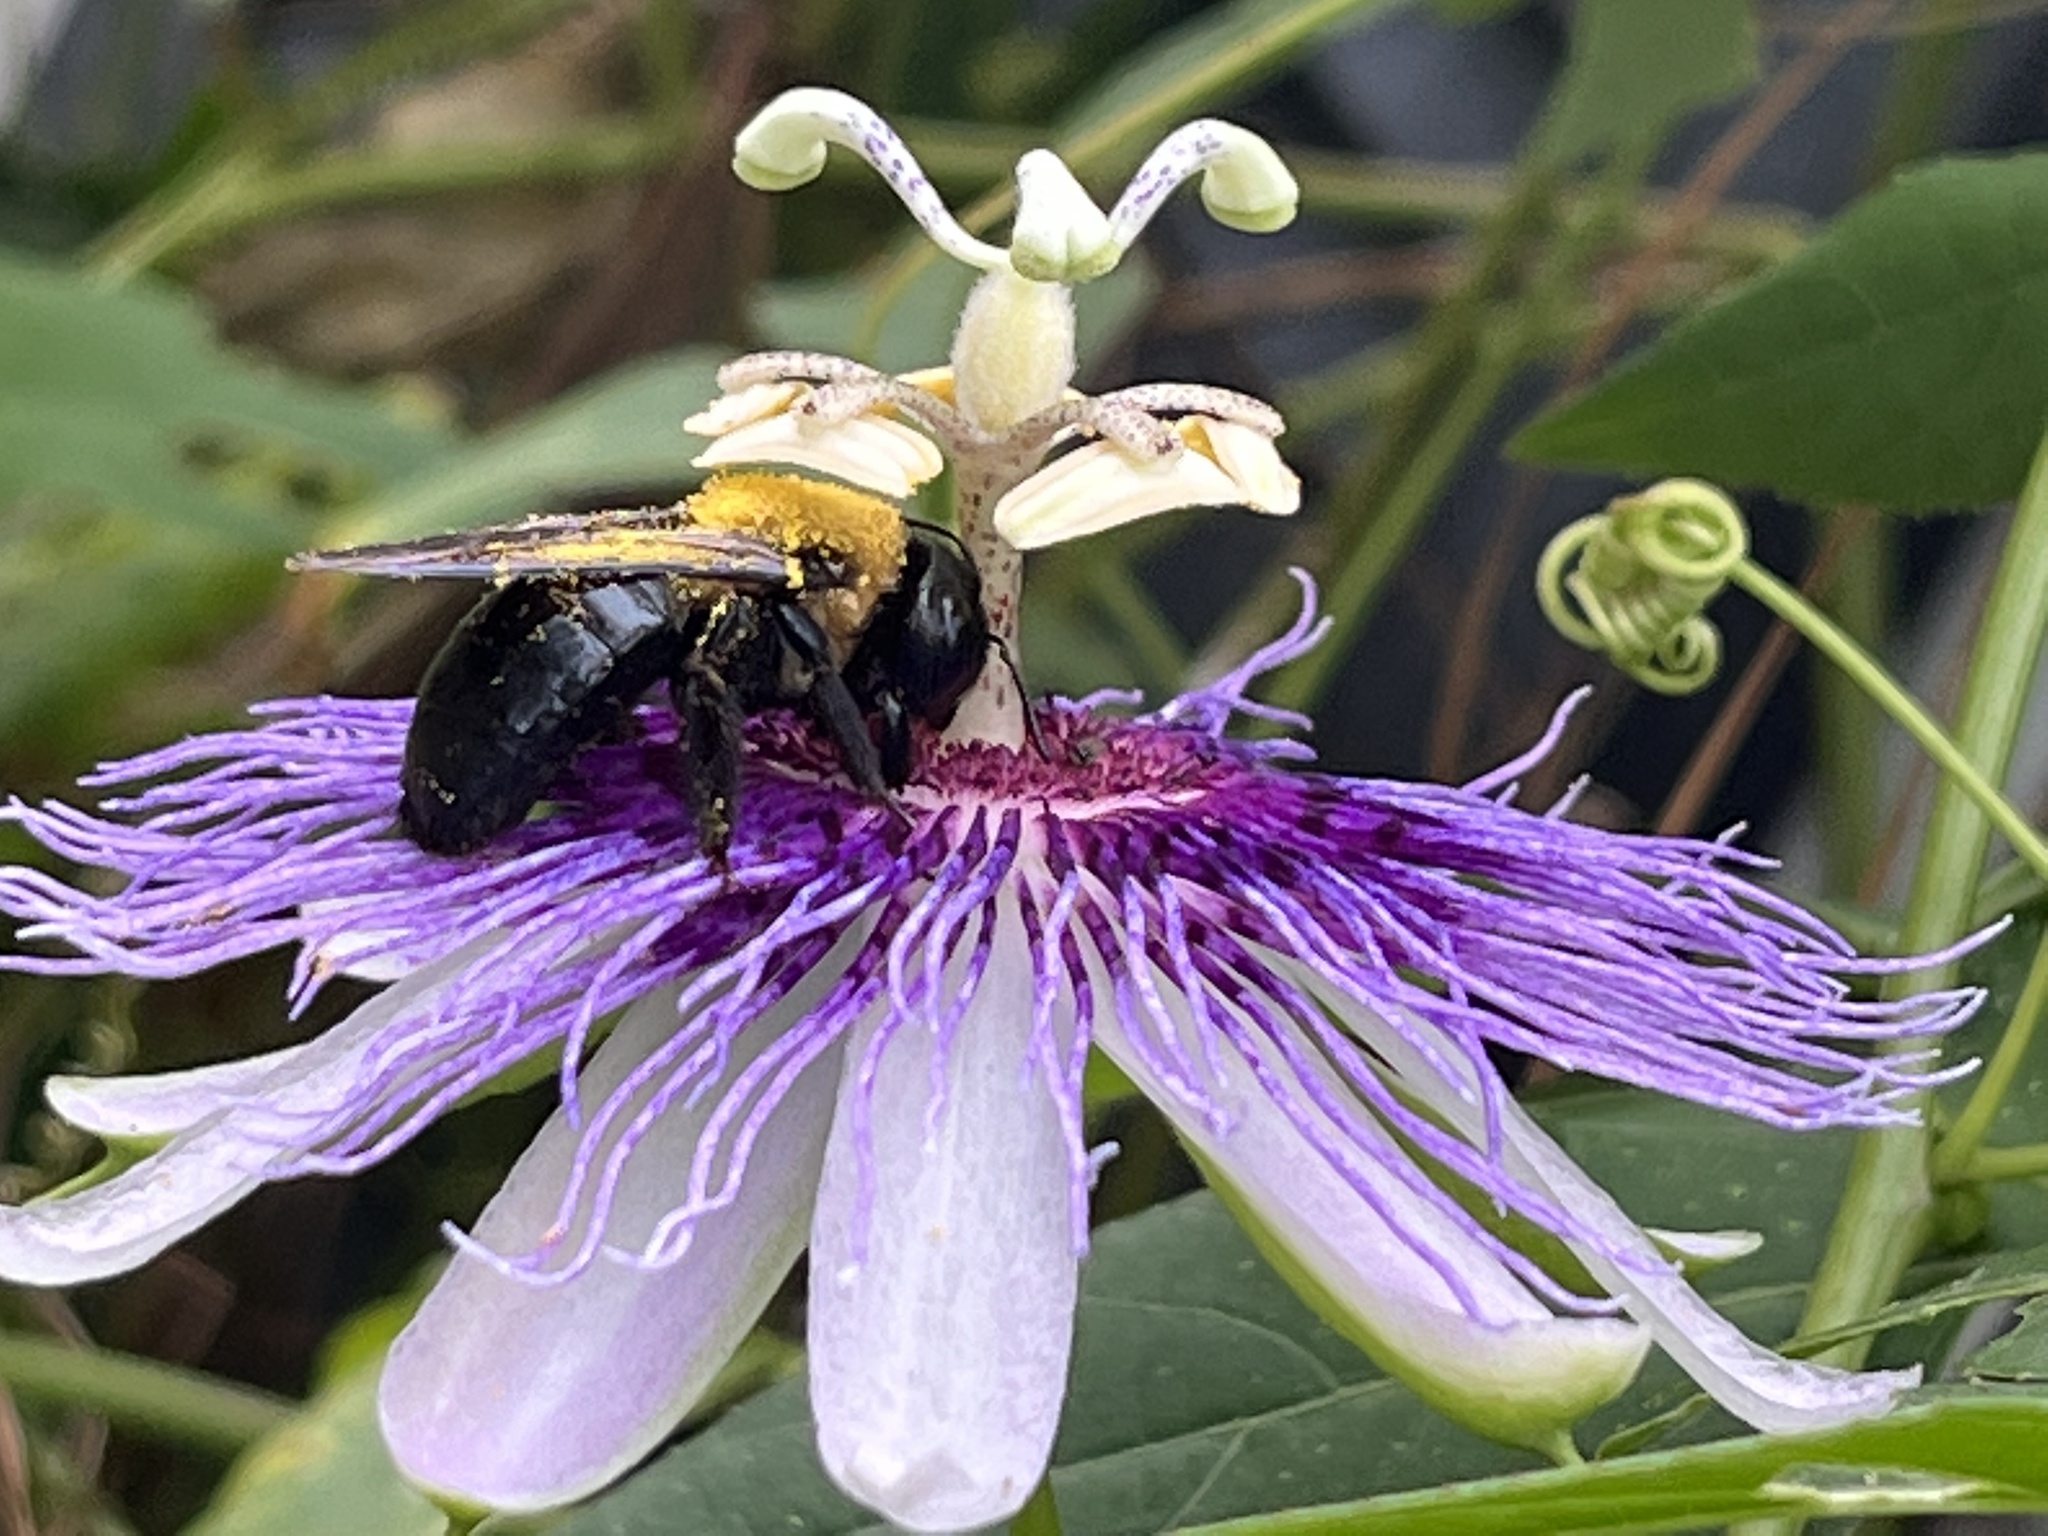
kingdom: Animalia
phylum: Arthropoda
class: Insecta
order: Hymenoptera
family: Apidae
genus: Xylocopa
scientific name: Xylocopa virginica
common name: Carpenter bee
